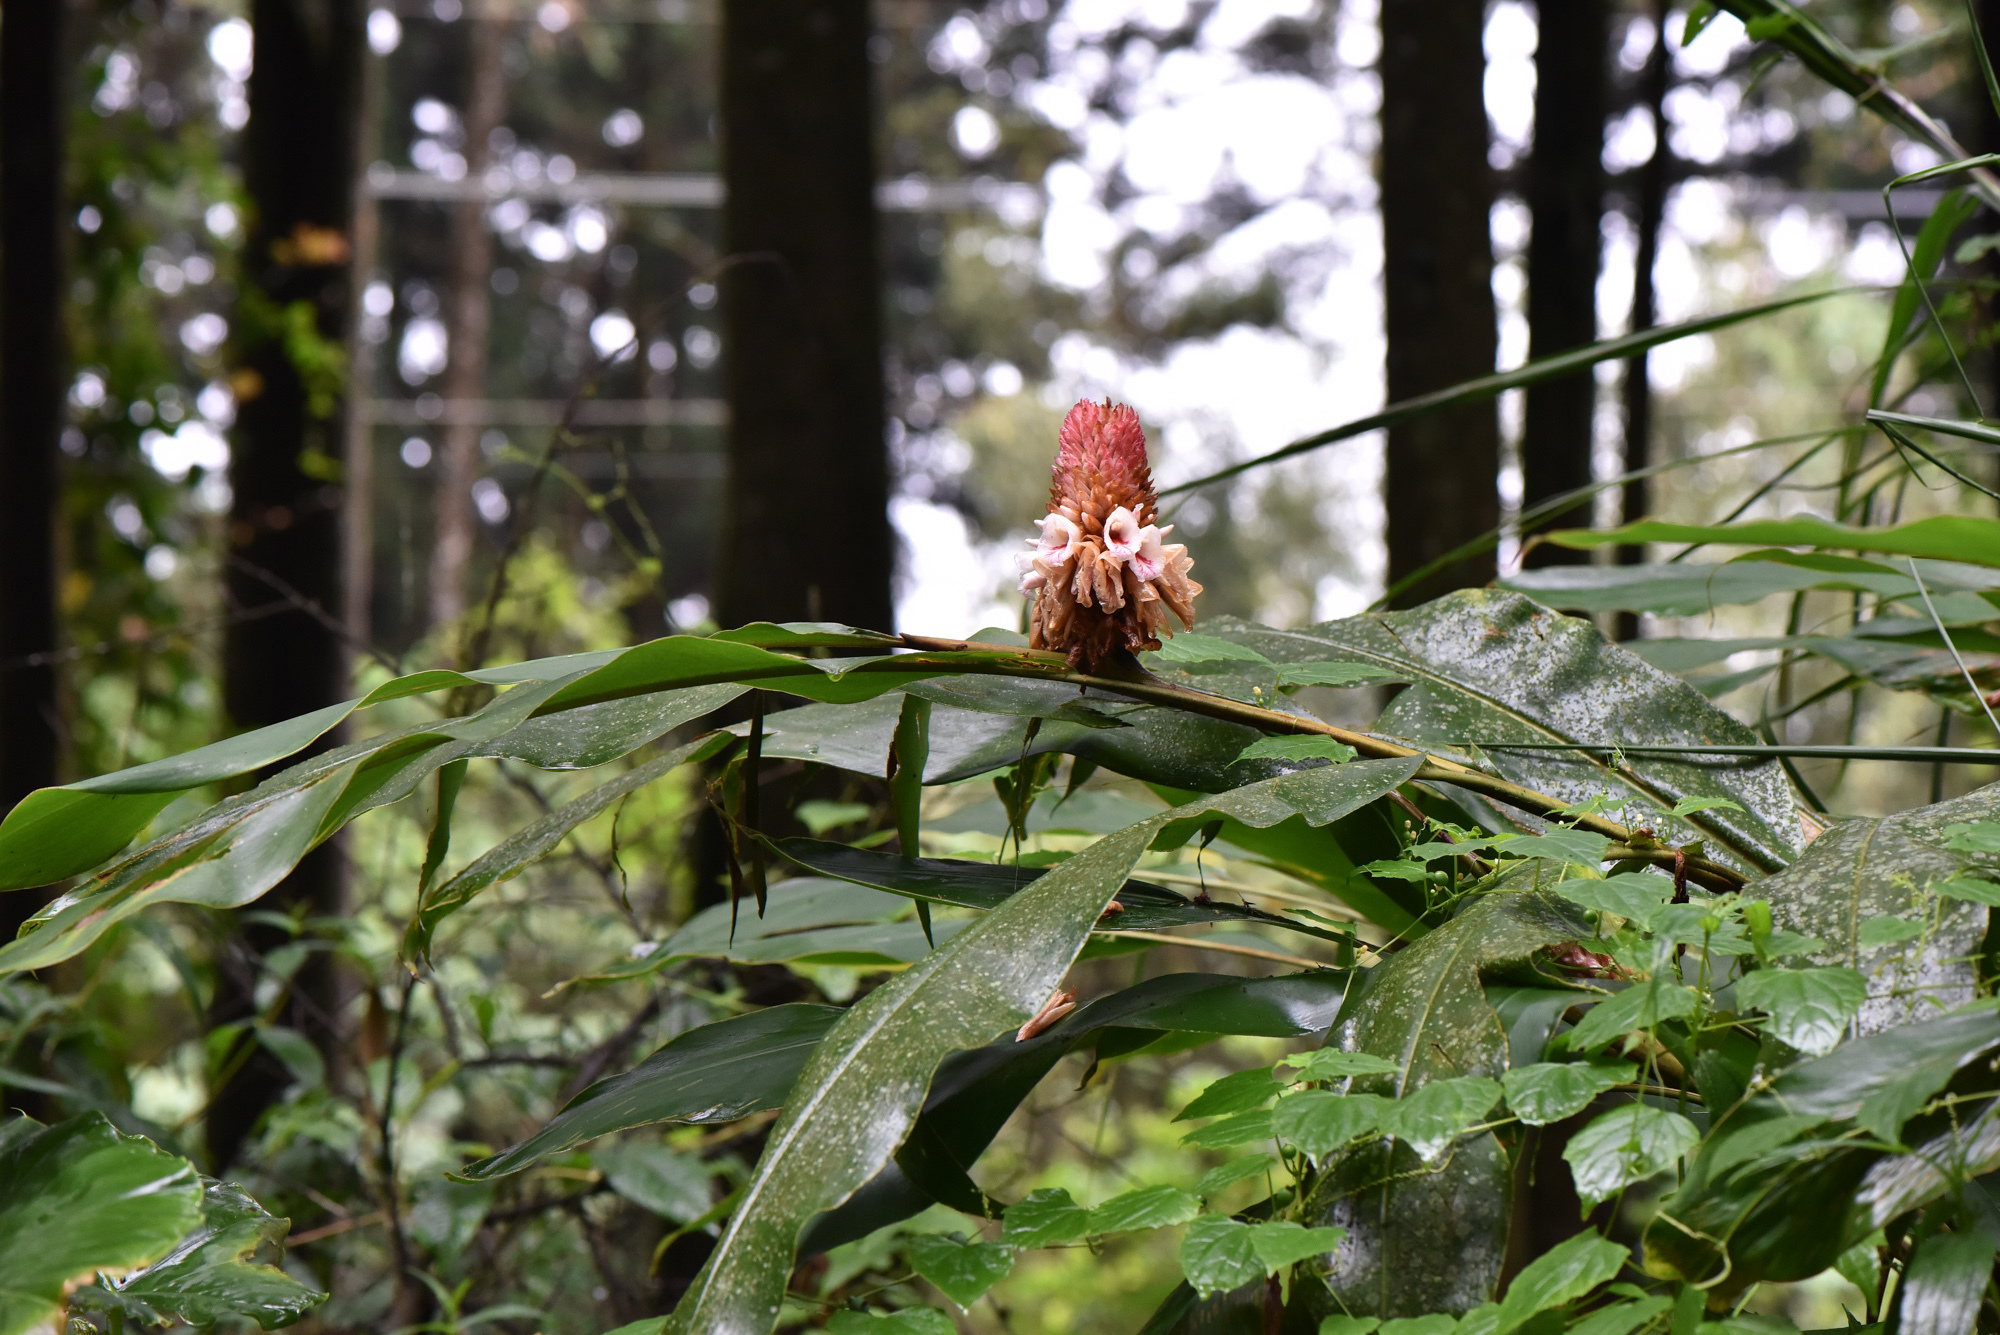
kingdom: Plantae
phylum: Tracheophyta
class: Liliopsida
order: Zingiberales
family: Zingiberaceae
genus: Alpinia
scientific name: Alpinia sessiliflora
